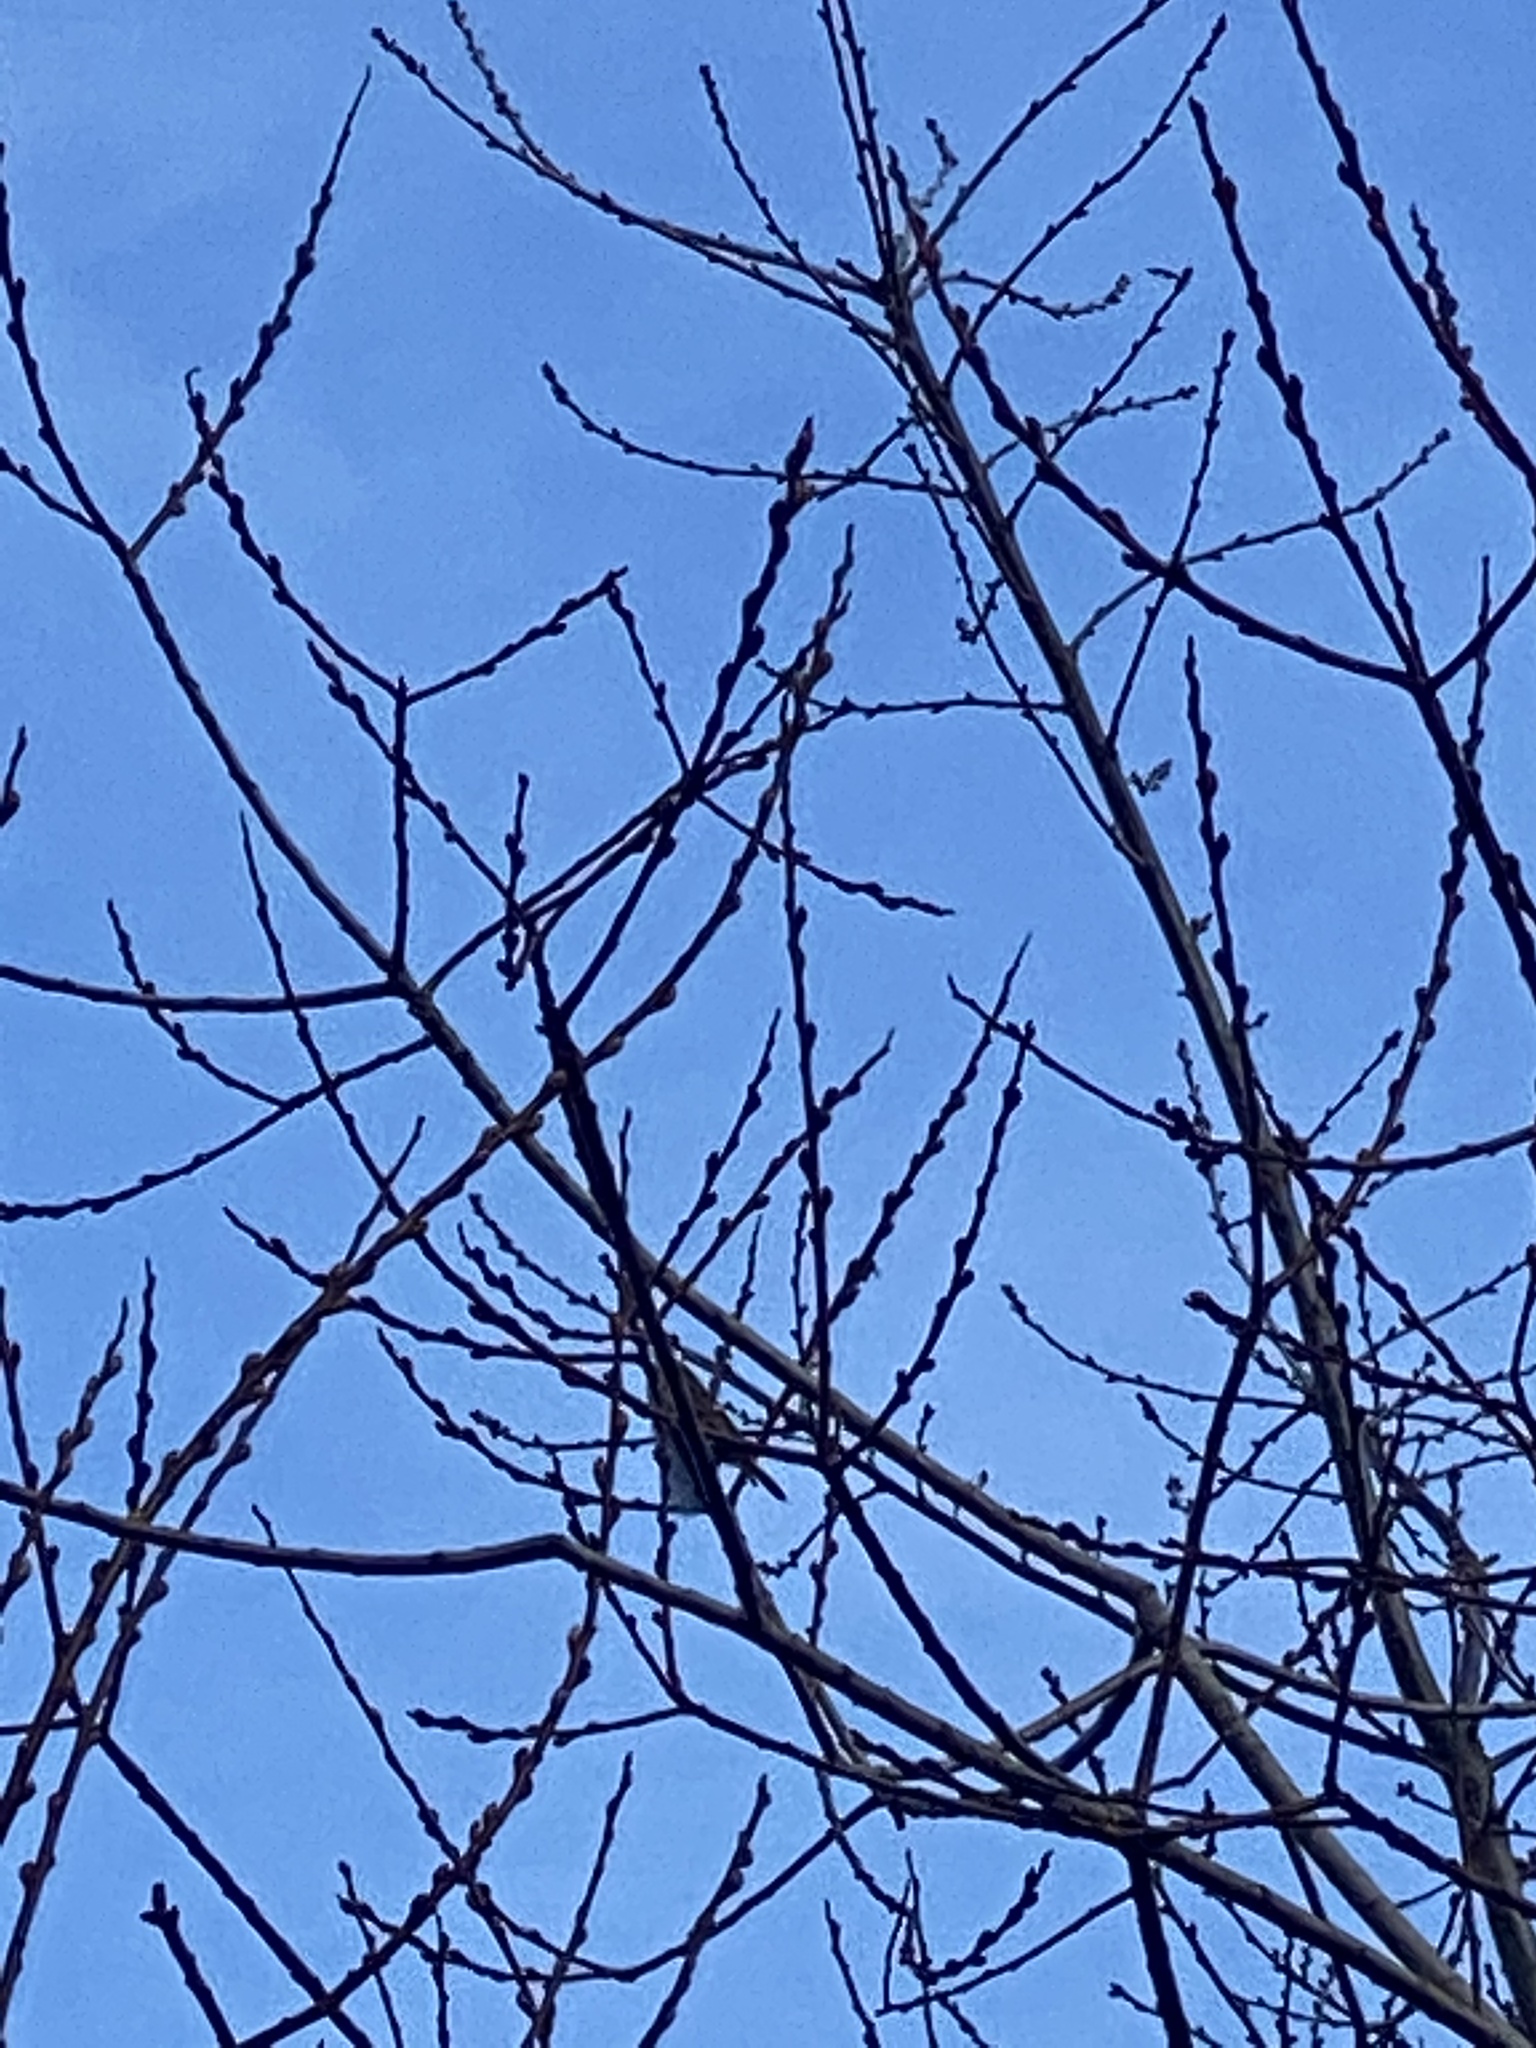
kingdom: Animalia
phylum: Chordata
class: Aves
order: Passeriformes
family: Regulidae
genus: Regulus
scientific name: Regulus calendula
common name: Ruby-crowned kinglet
